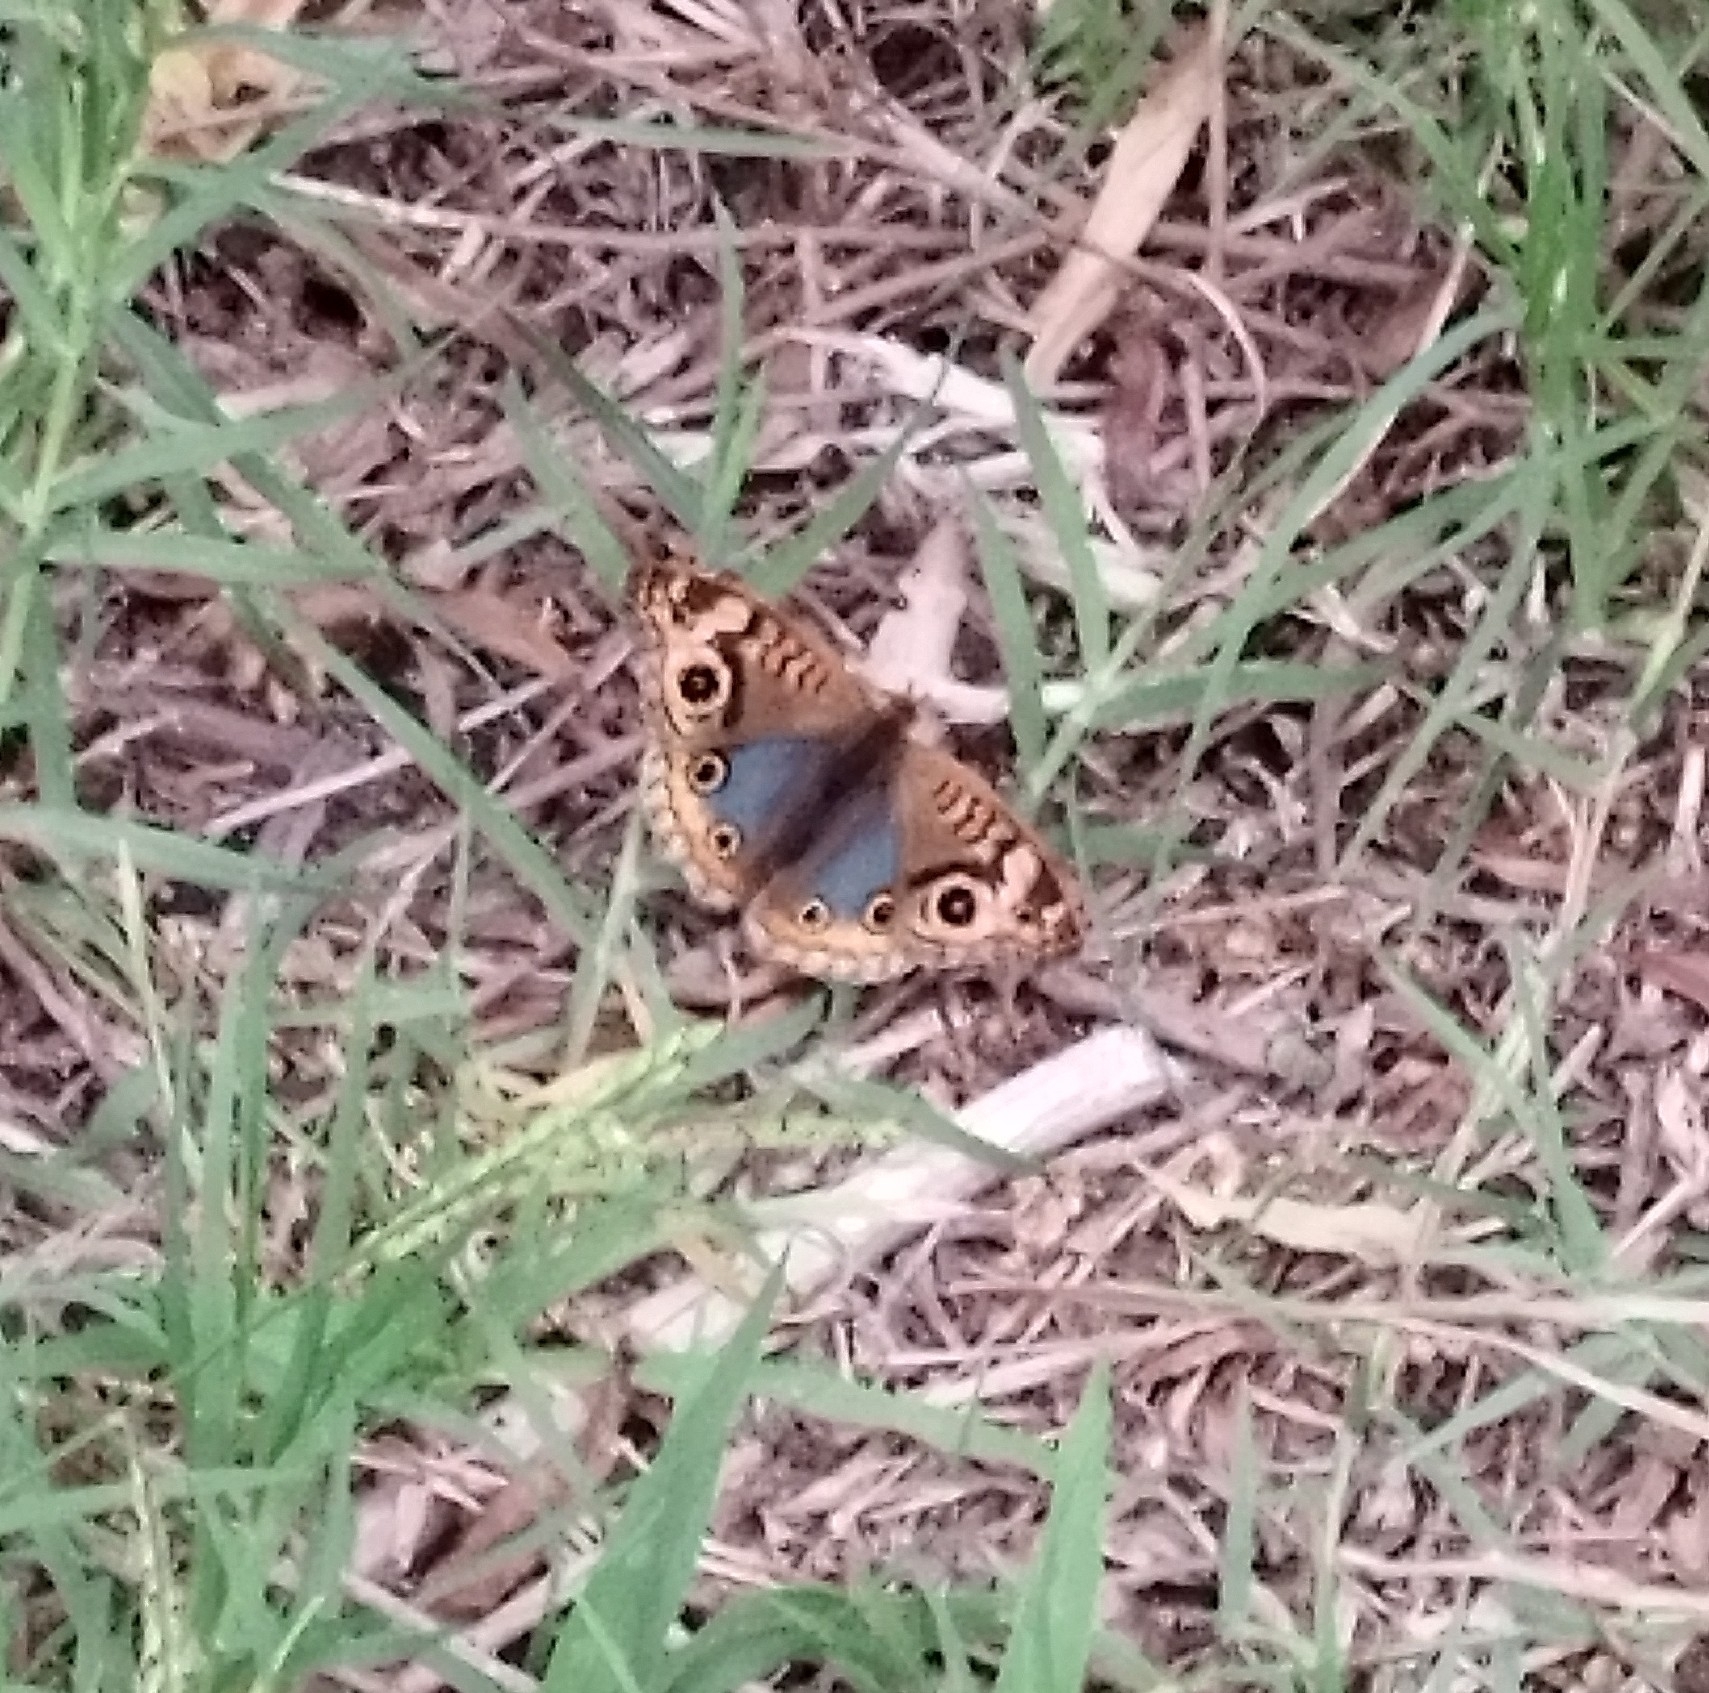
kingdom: Animalia
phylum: Arthropoda
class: Insecta
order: Lepidoptera
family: Nymphalidae
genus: Junonia
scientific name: Junonia lavinia
